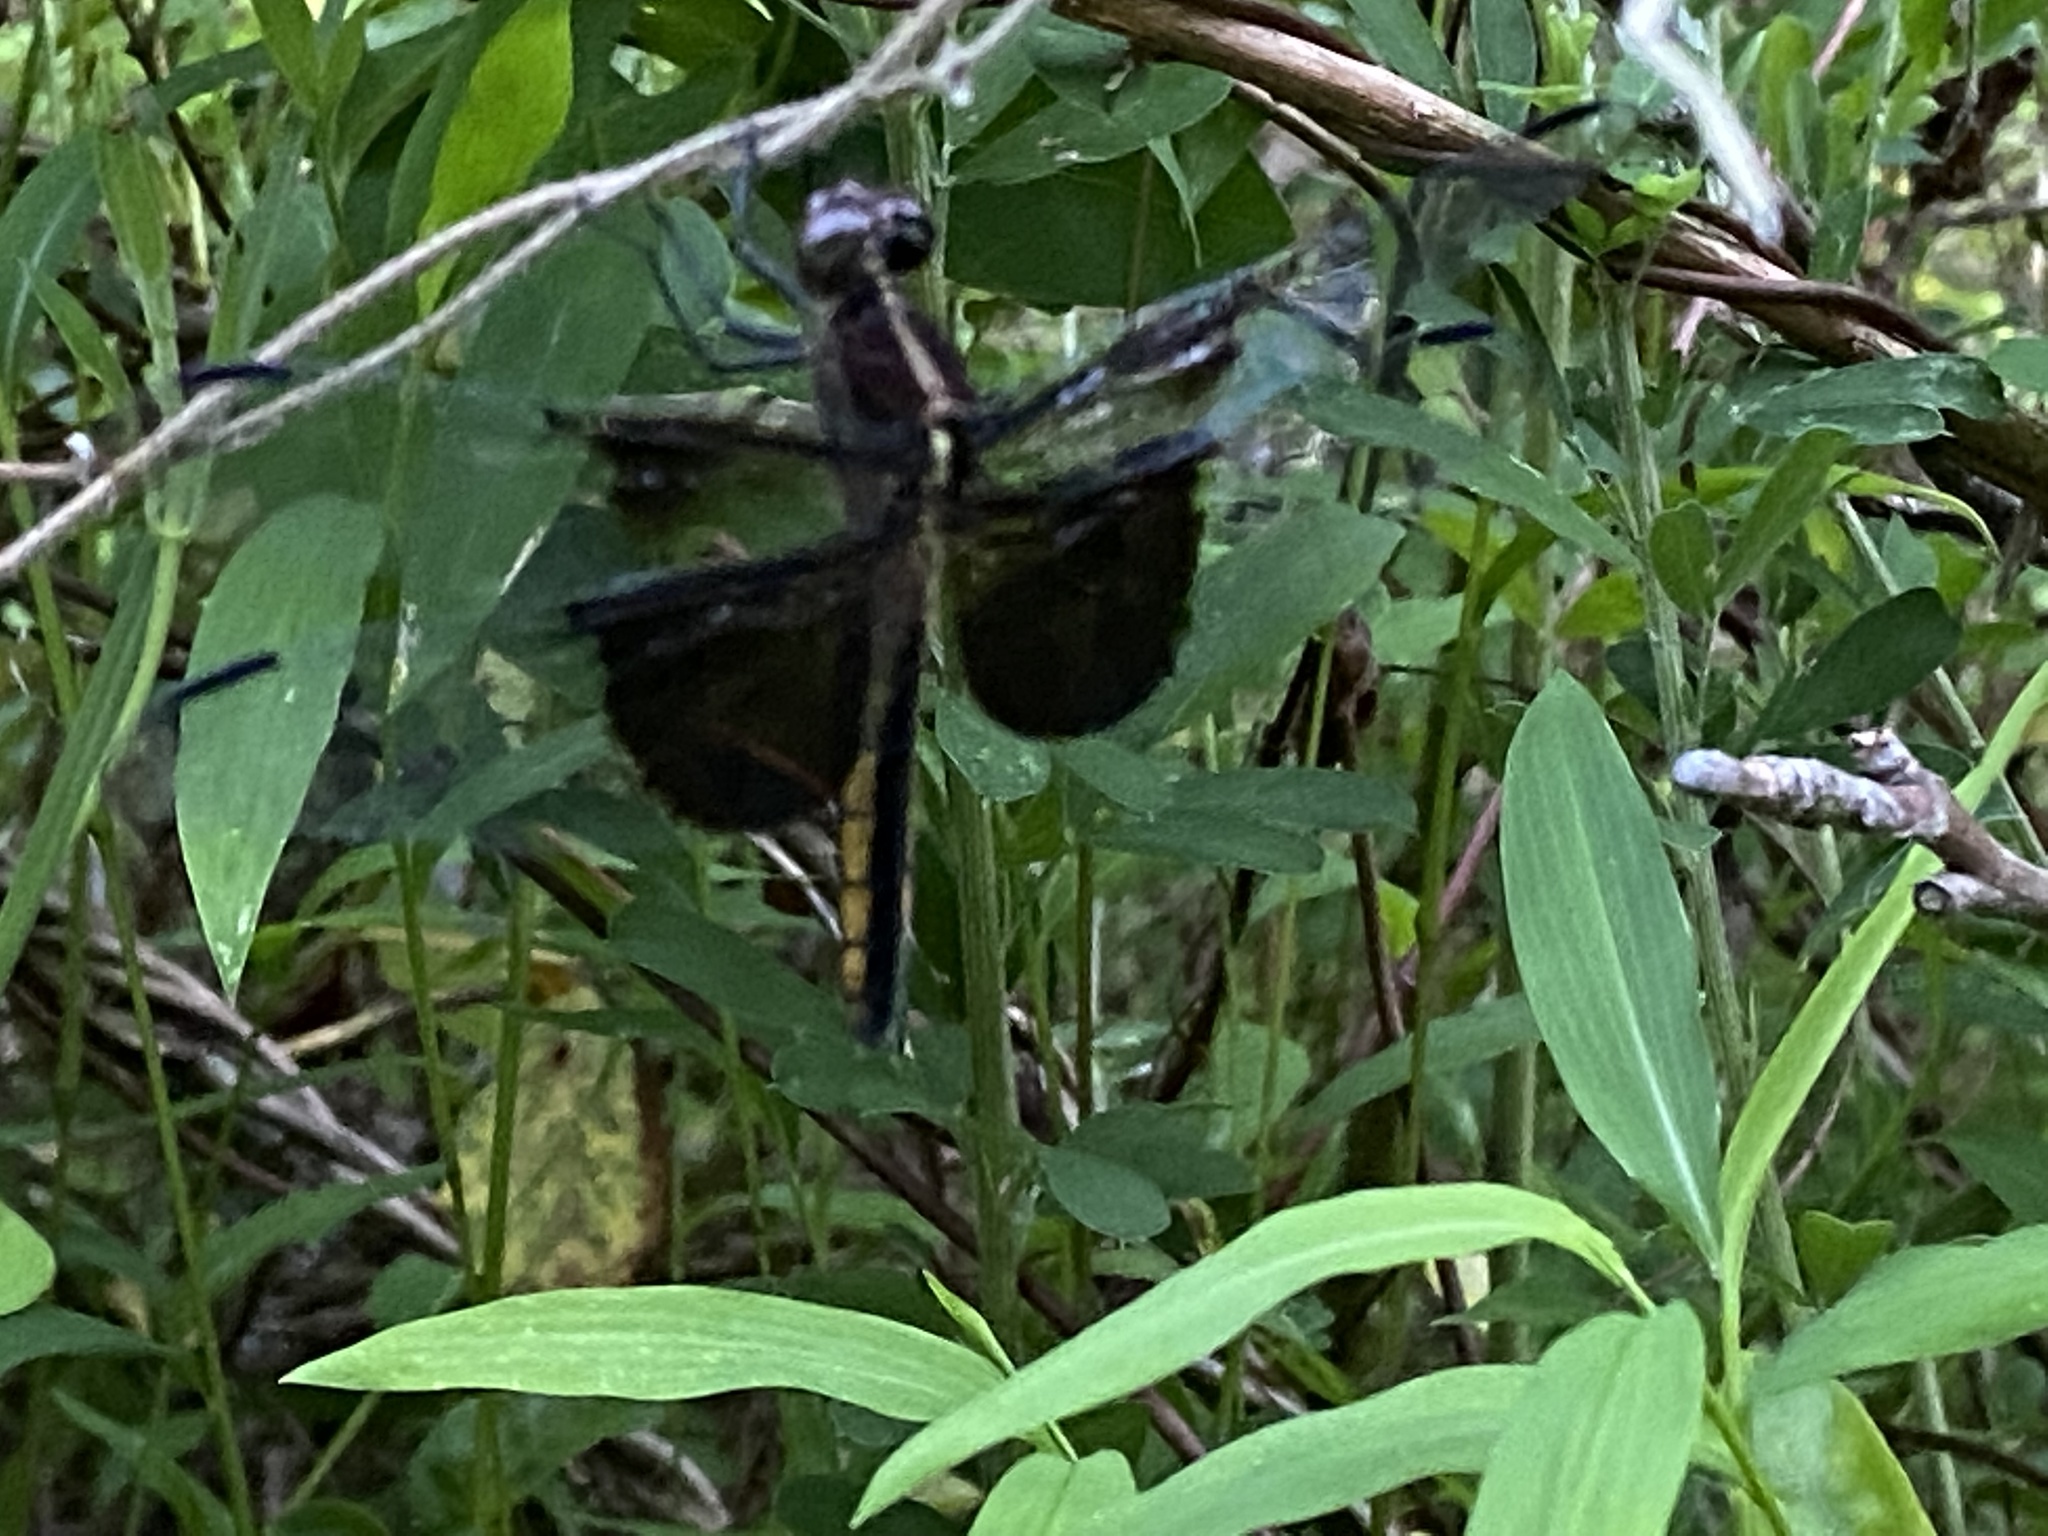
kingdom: Animalia
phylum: Arthropoda
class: Insecta
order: Odonata
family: Libellulidae
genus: Libellula
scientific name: Libellula luctuosa
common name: Widow skimmer
